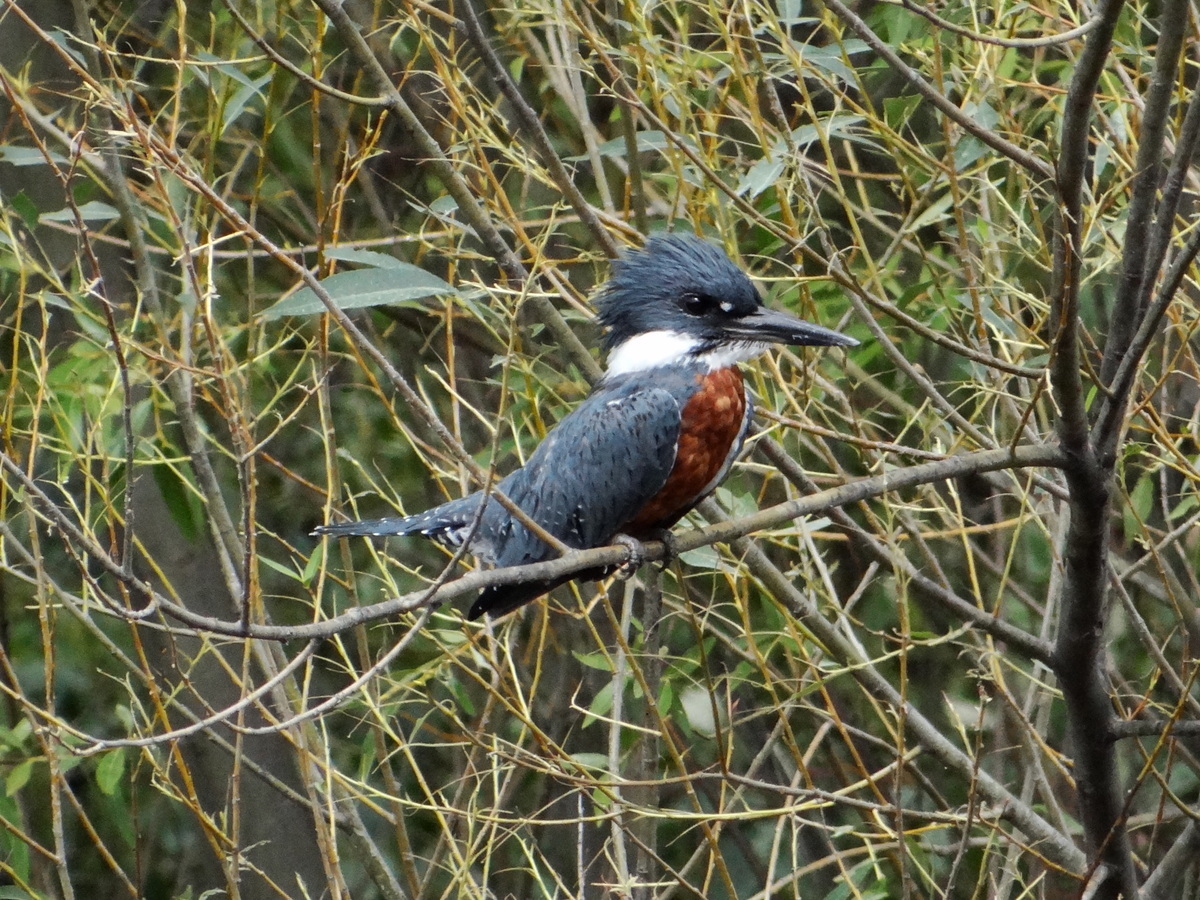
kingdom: Animalia
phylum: Chordata
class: Aves
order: Coraciiformes
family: Alcedinidae
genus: Megaceryle
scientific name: Megaceryle torquata
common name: Ringed kingfisher
